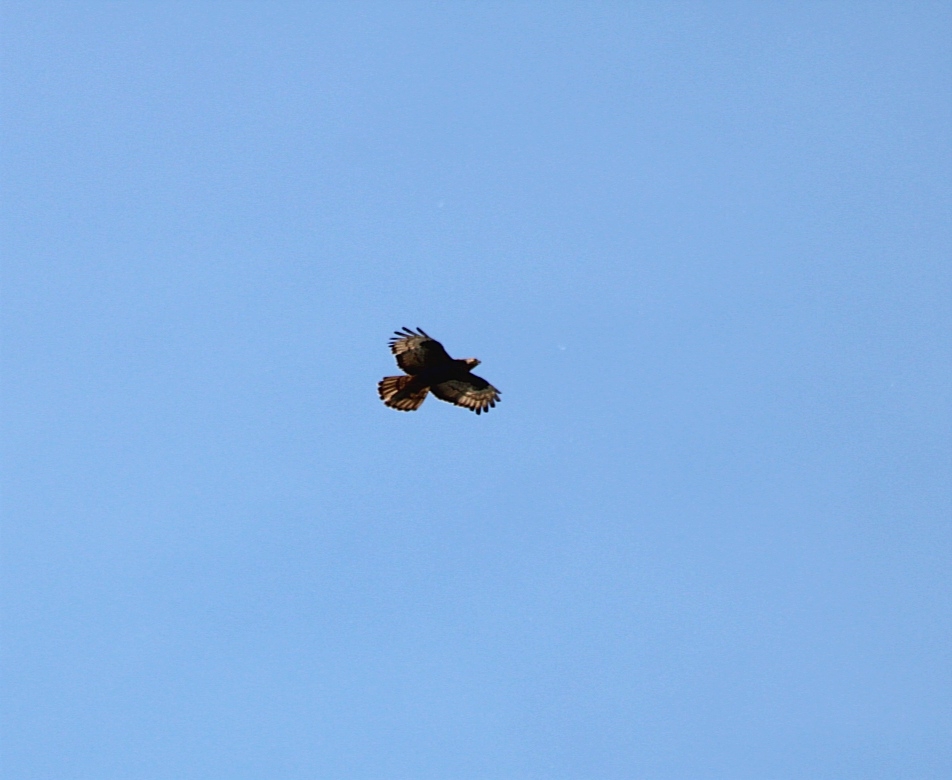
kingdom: Animalia
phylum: Chordata
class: Aves
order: Accipitriformes
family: Accipitridae
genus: Pernis
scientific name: Pernis apivorus
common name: European honey buzzard
